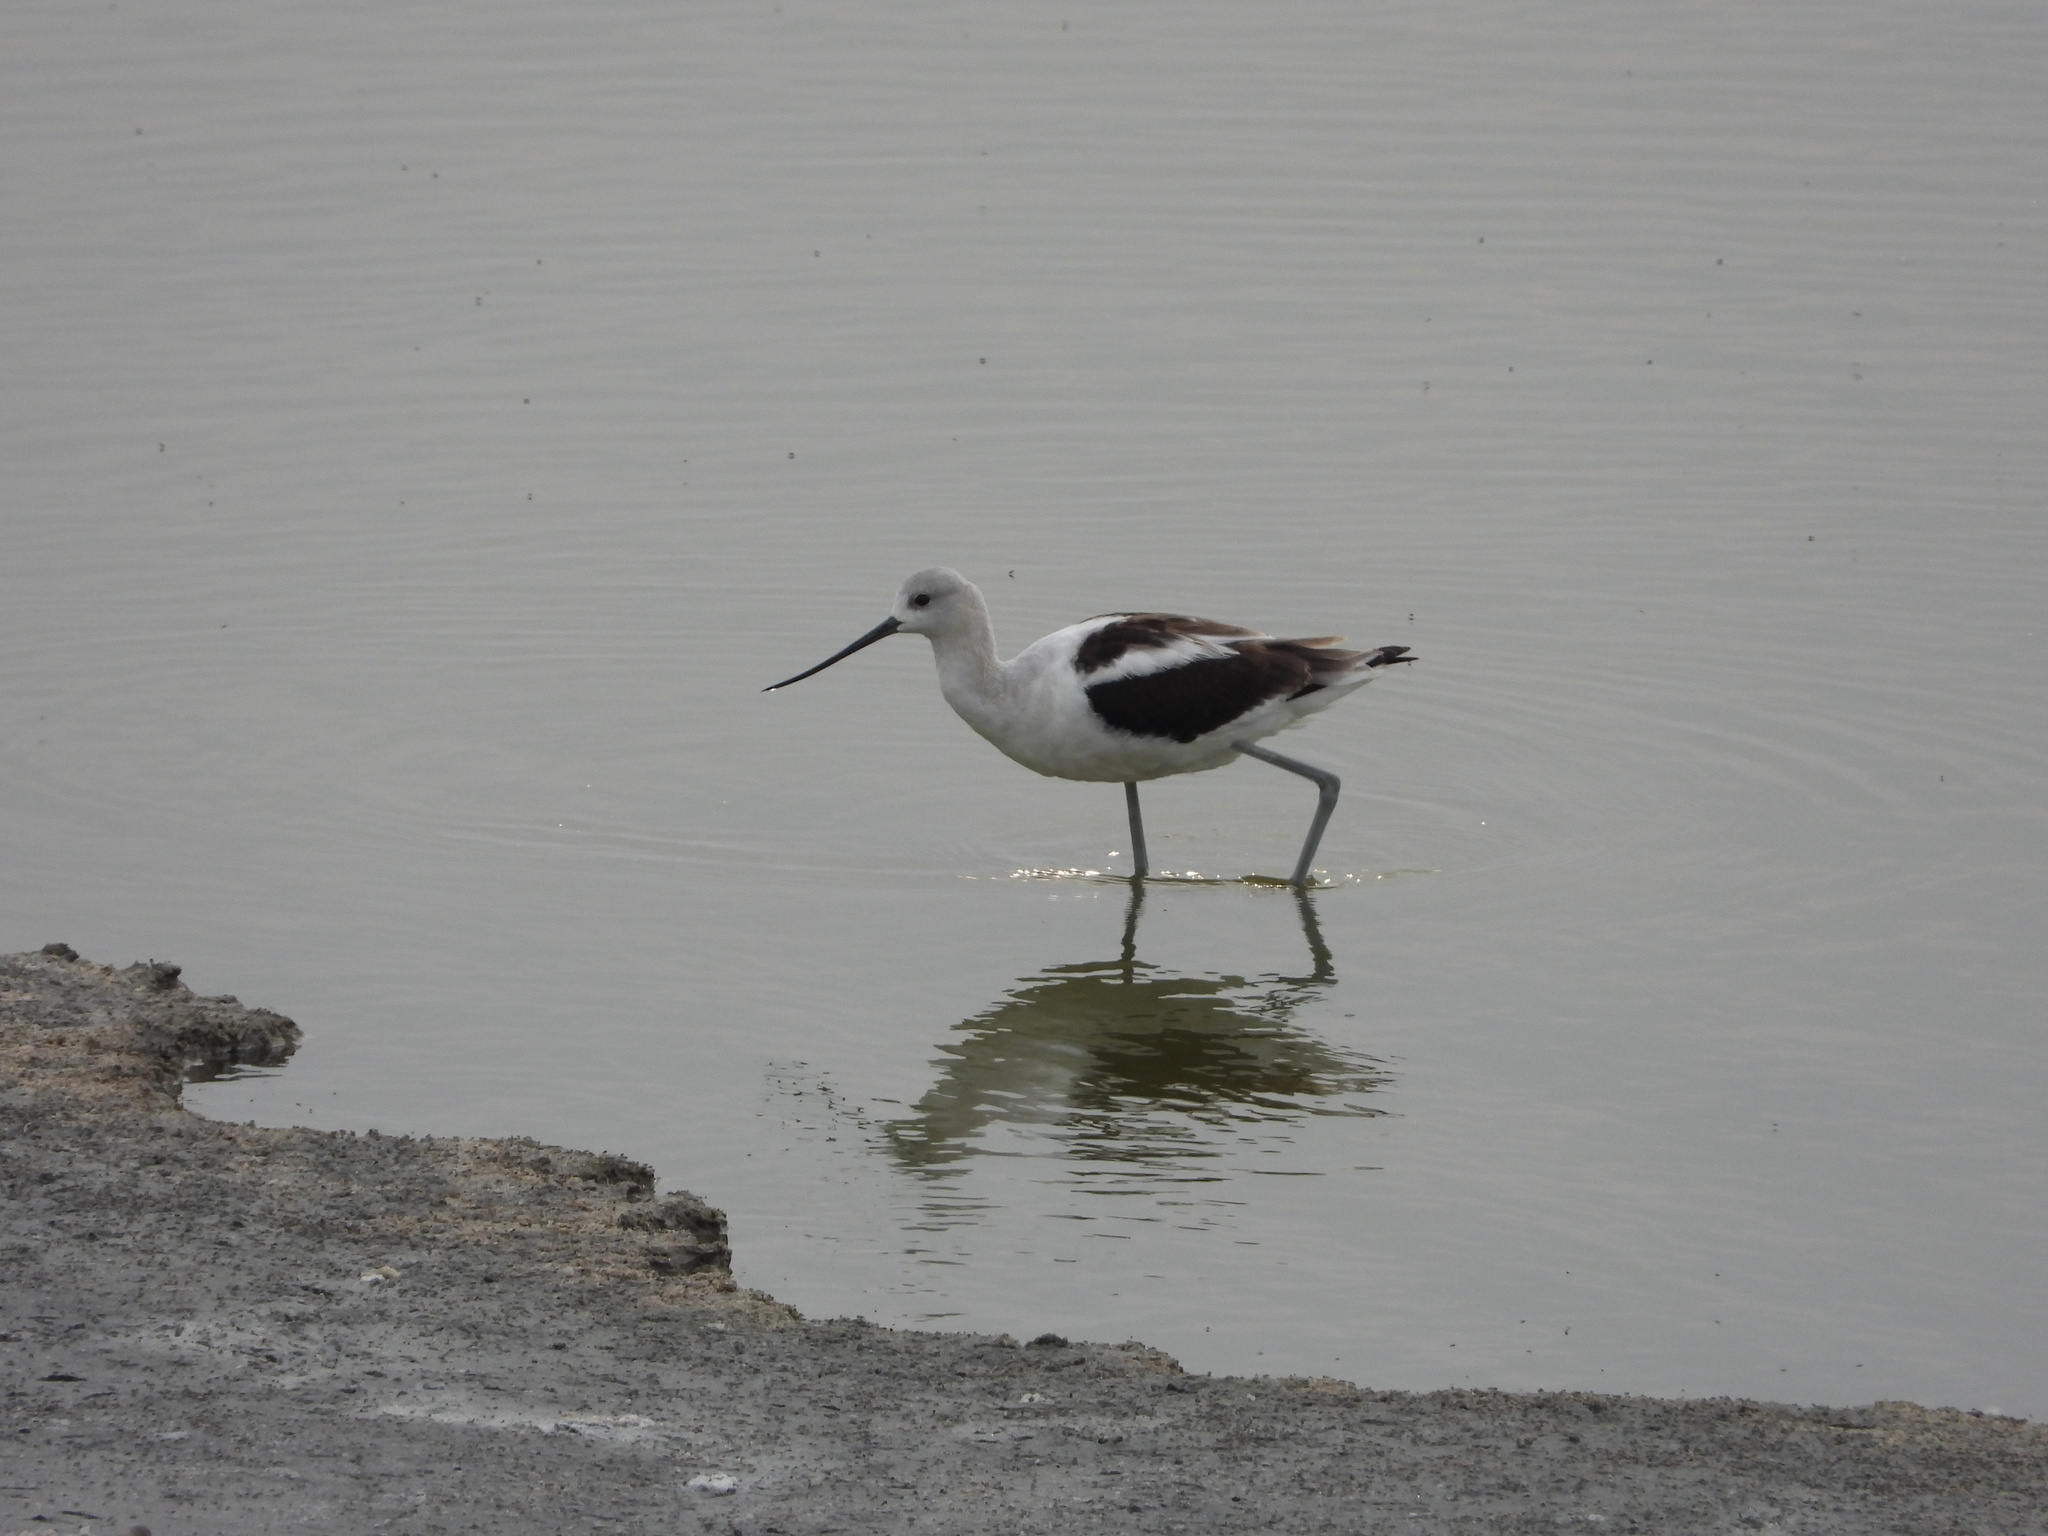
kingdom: Animalia
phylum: Chordata
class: Aves
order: Charadriiformes
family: Recurvirostridae
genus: Recurvirostra
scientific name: Recurvirostra americana
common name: American avocet
